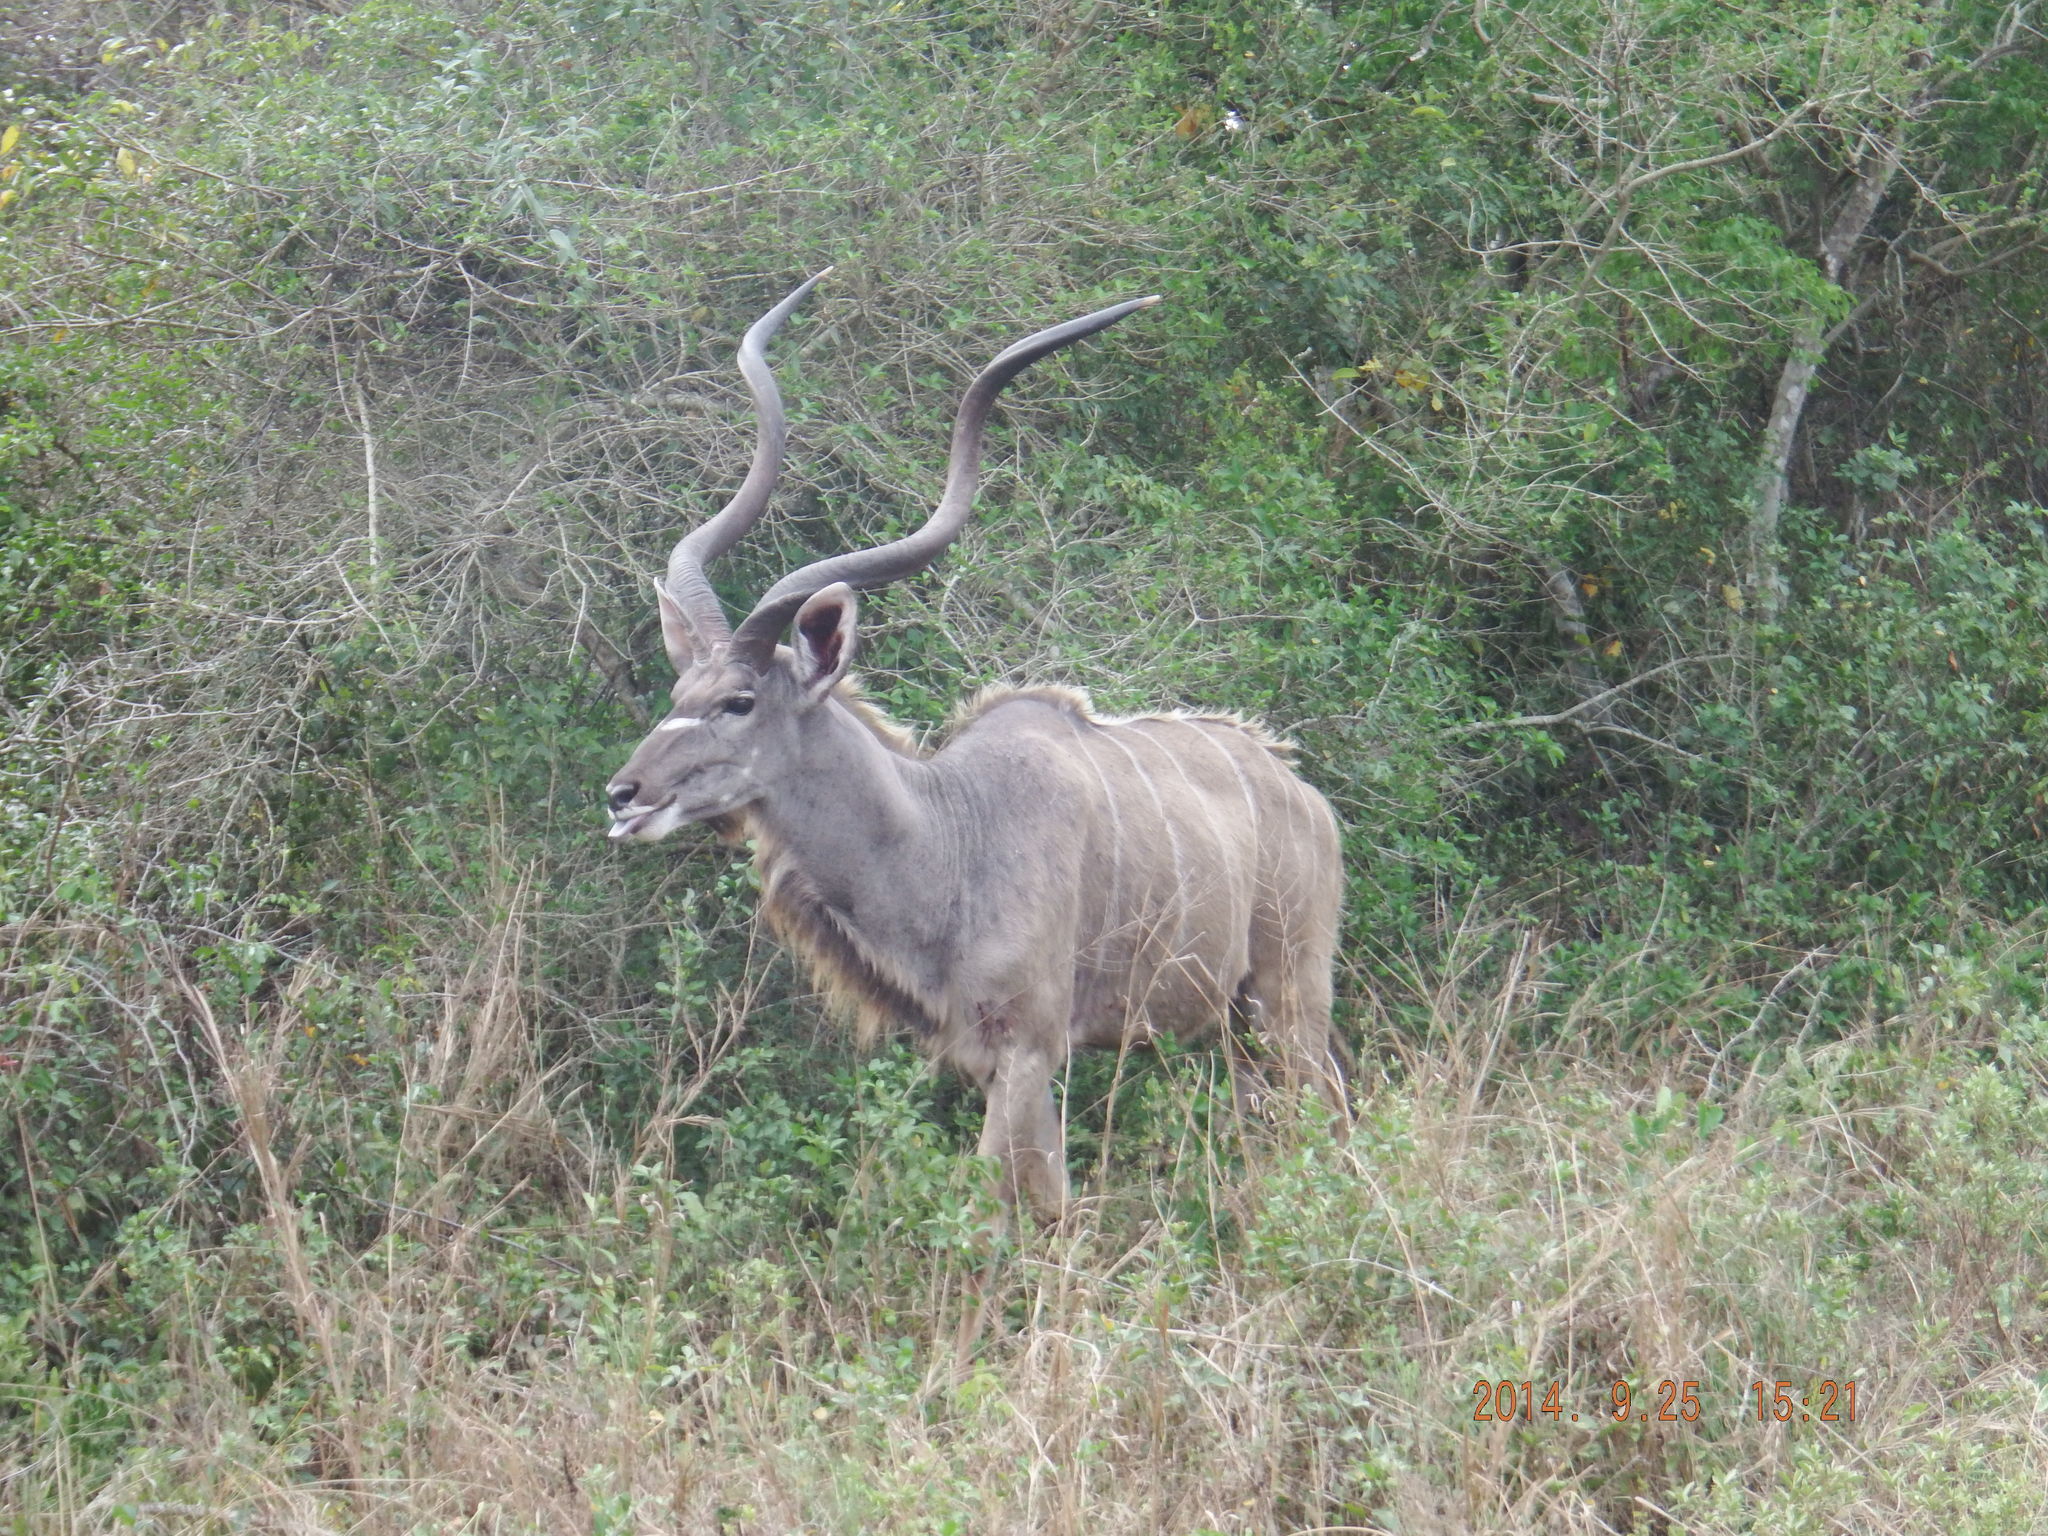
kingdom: Animalia
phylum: Chordata
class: Mammalia
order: Artiodactyla
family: Bovidae
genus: Tragelaphus
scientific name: Tragelaphus strepsiceros
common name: Greater kudu
